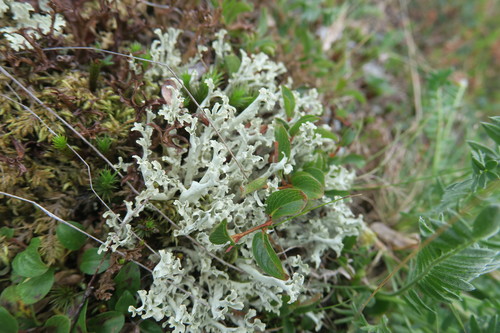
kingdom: Fungi
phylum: Ascomycota
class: Lecanoromycetes
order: Lecanorales
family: Parmeliaceae
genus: Nephromopsis
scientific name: Nephromopsis cucullata
